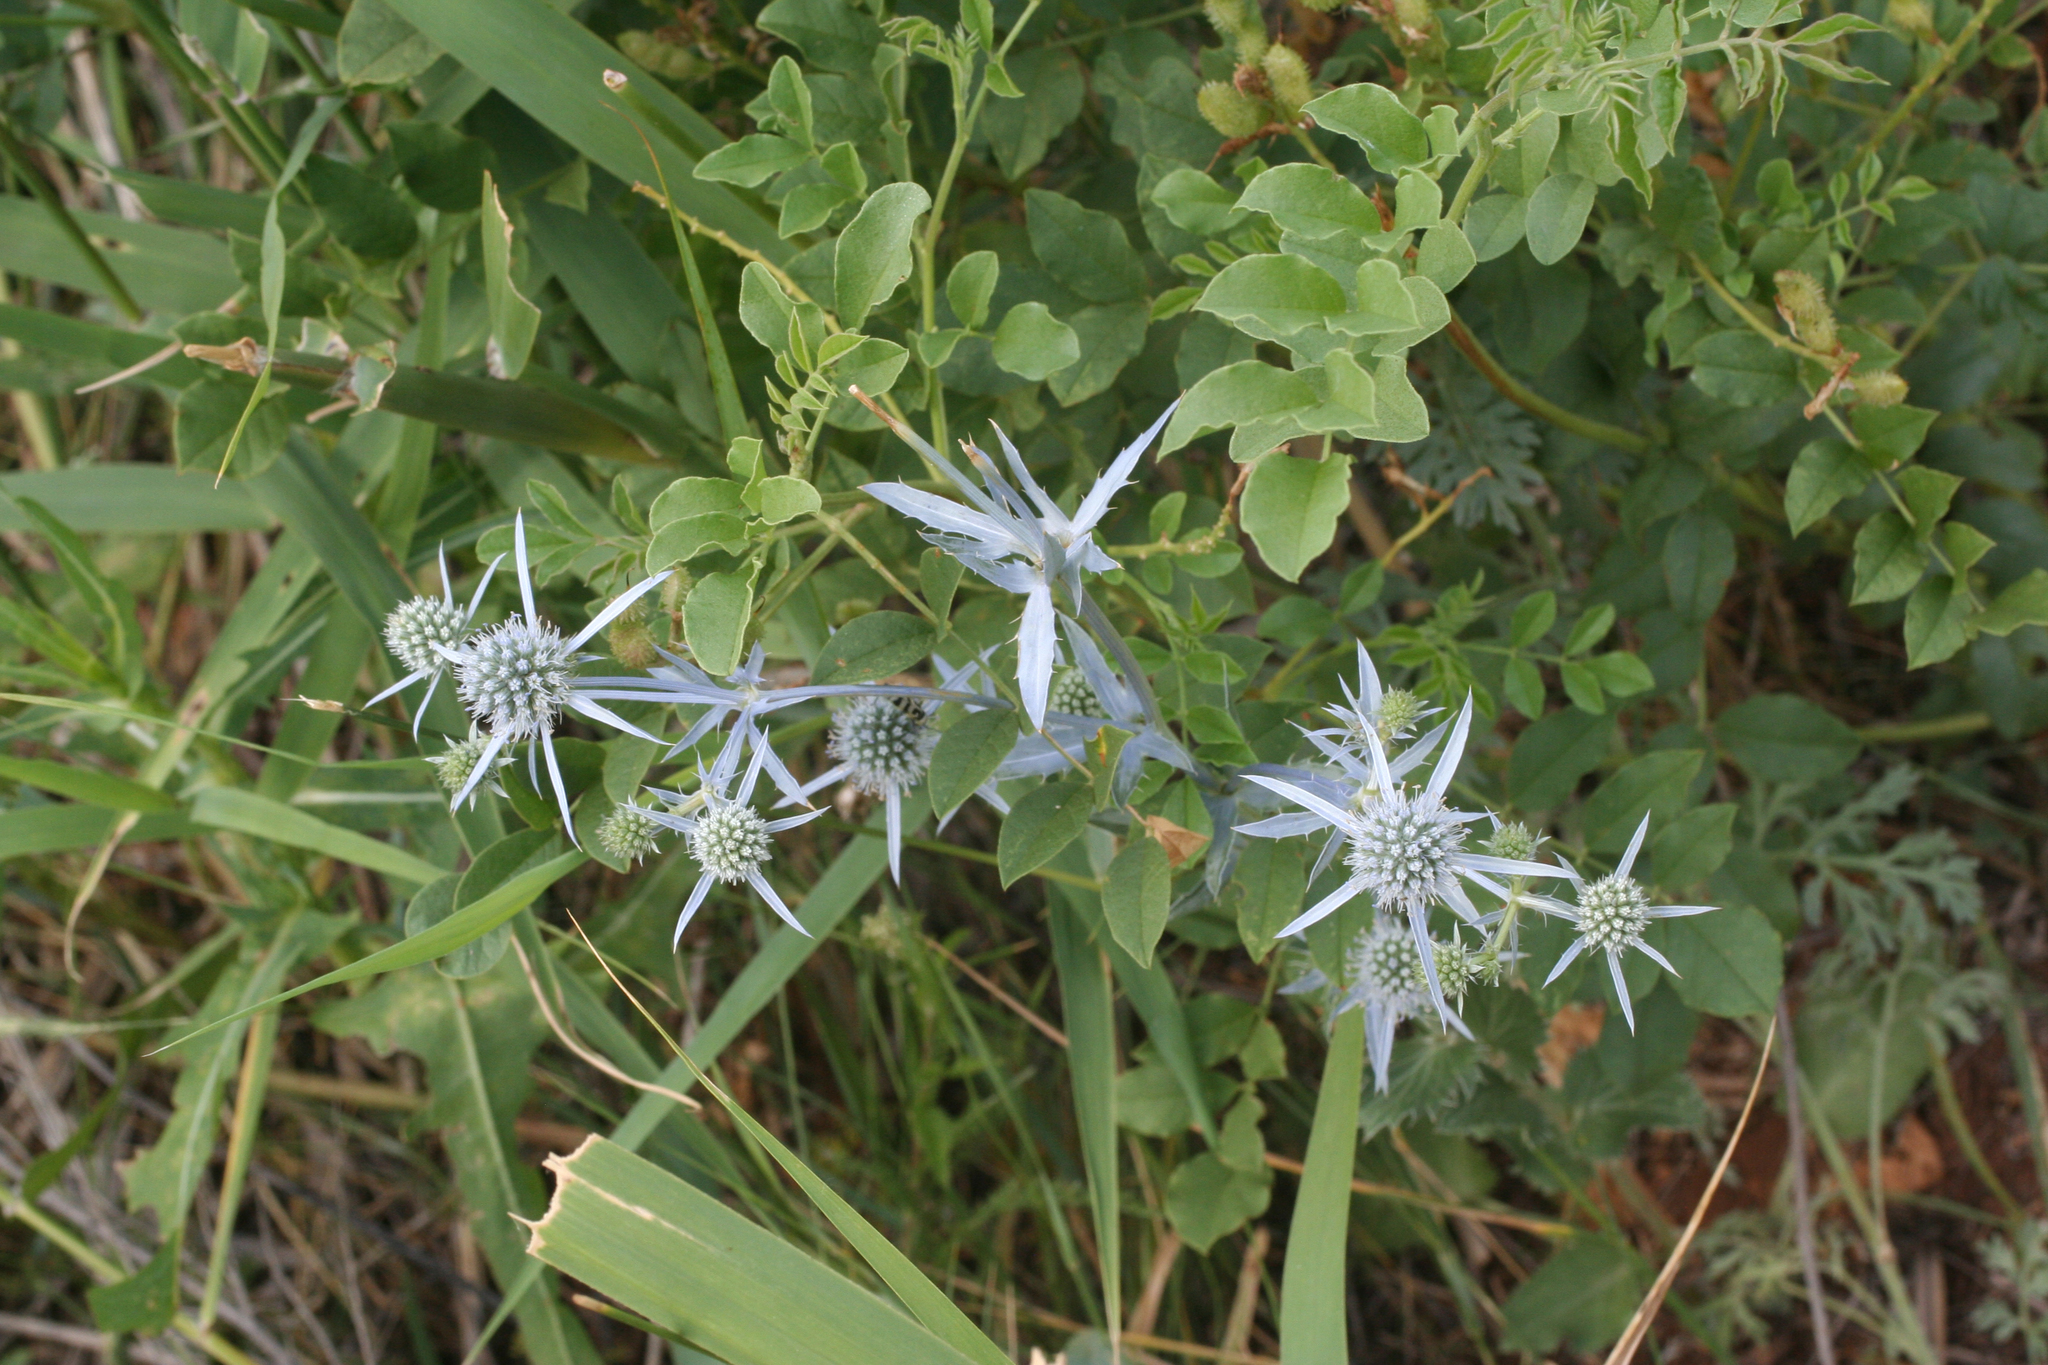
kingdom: Plantae
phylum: Tracheophyta
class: Magnoliopsida
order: Apiales
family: Apiaceae
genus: Eryngium
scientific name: Eryngium planum
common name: Blue eryngo
